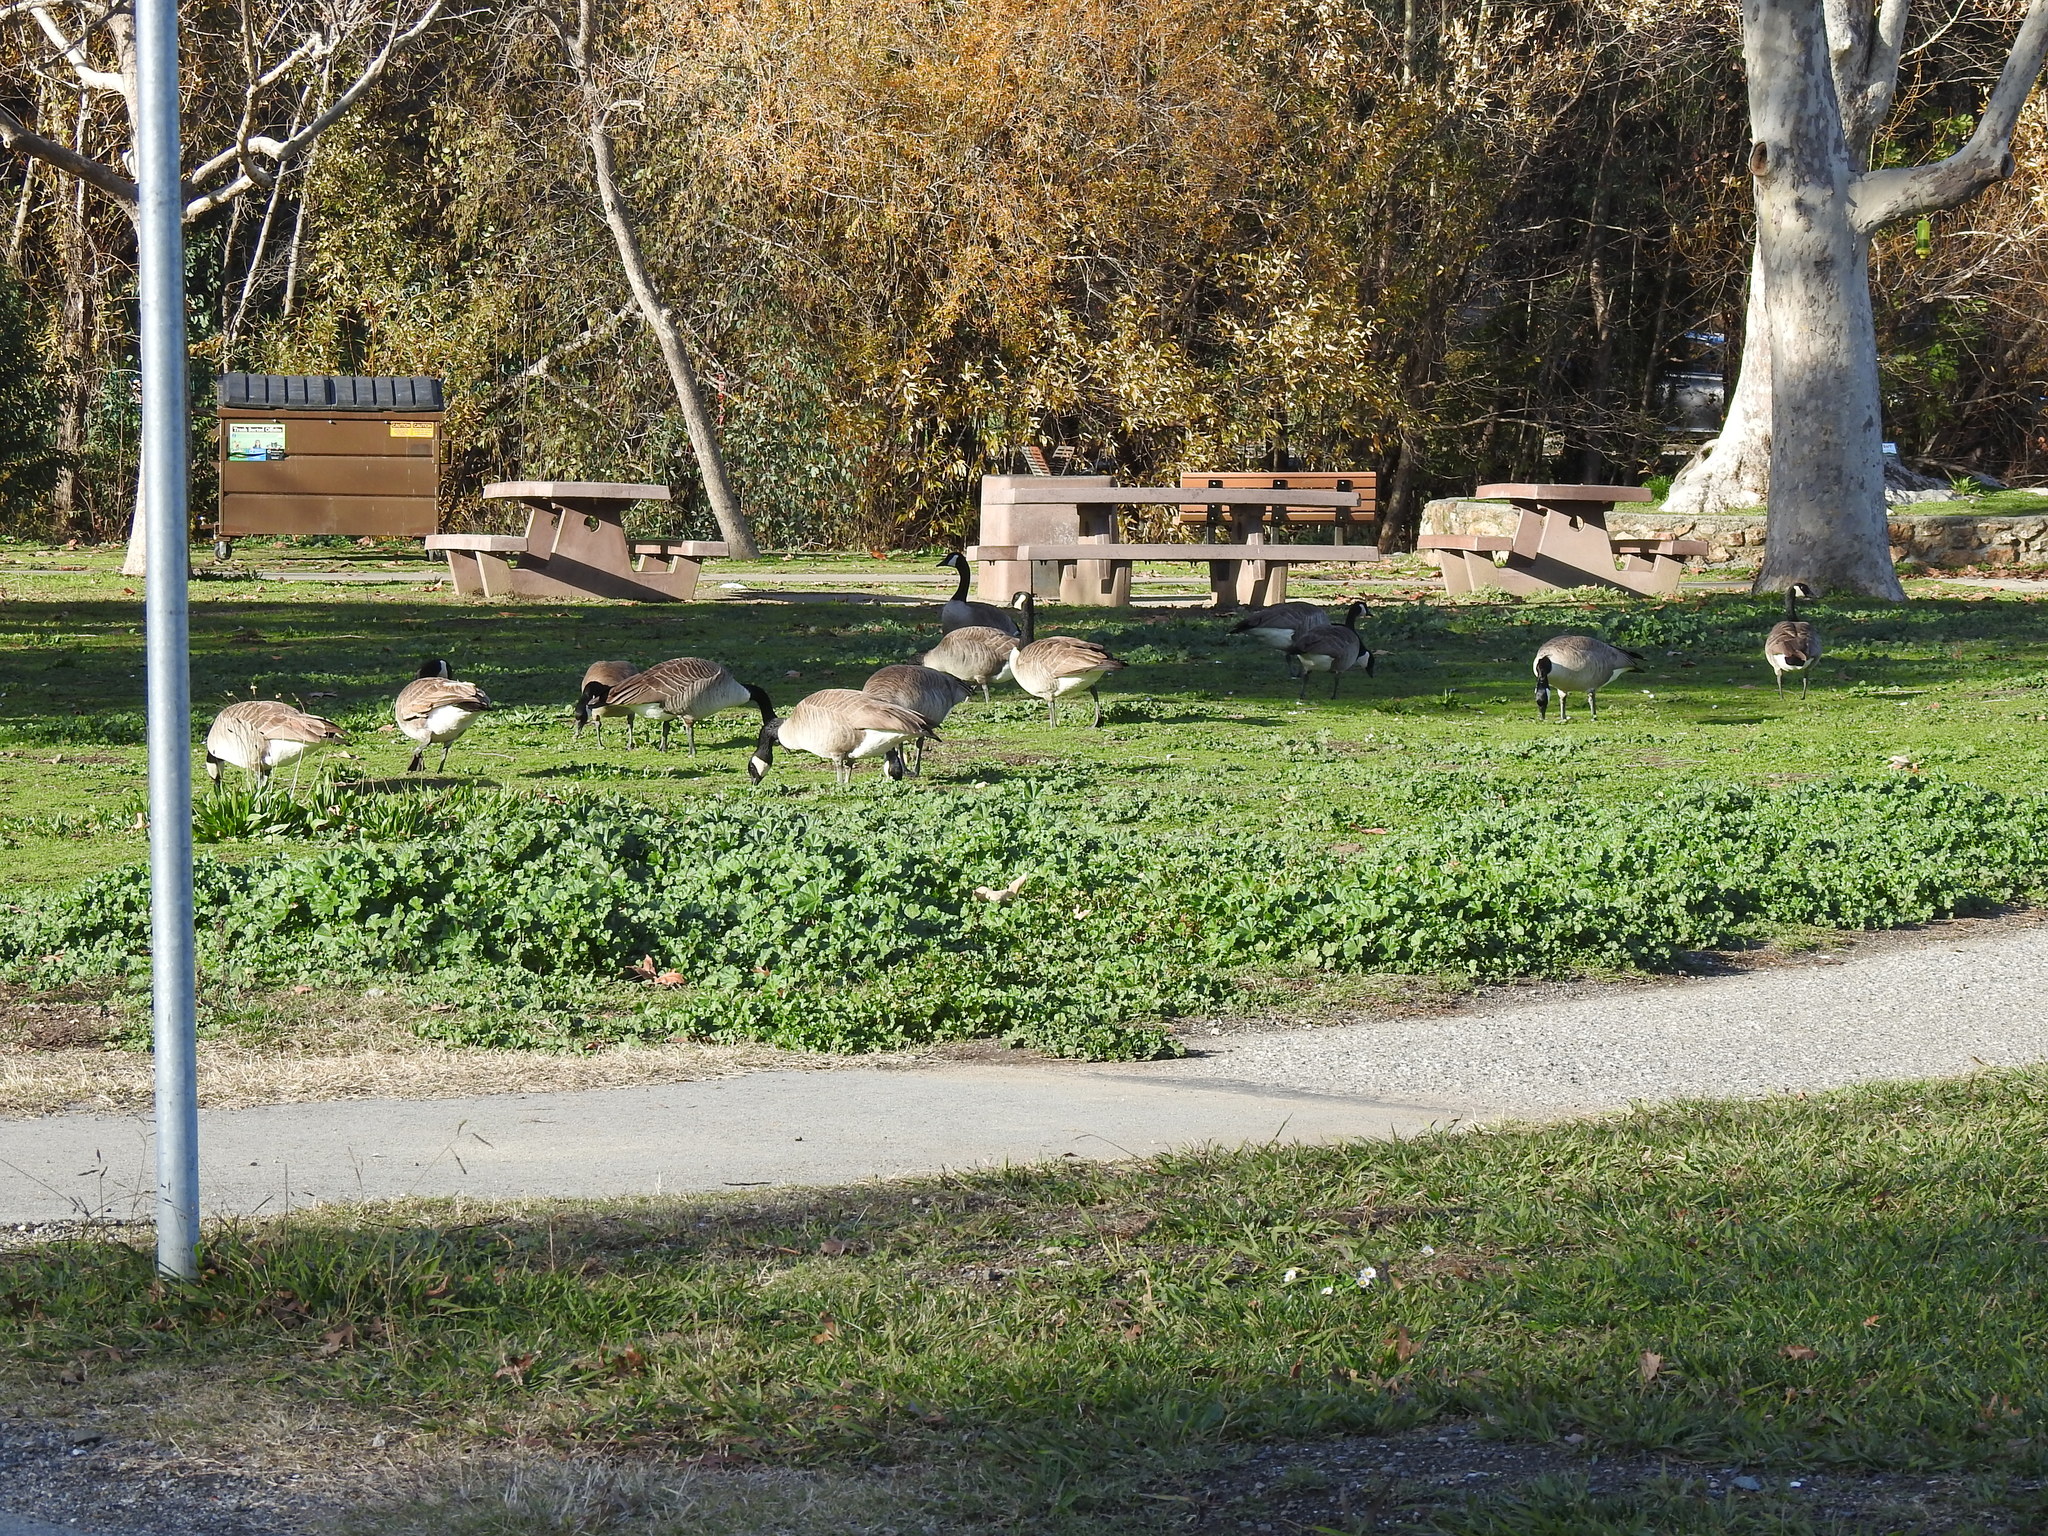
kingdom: Animalia
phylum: Chordata
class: Aves
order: Anseriformes
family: Anatidae
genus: Branta
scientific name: Branta canadensis
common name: Canada goose
